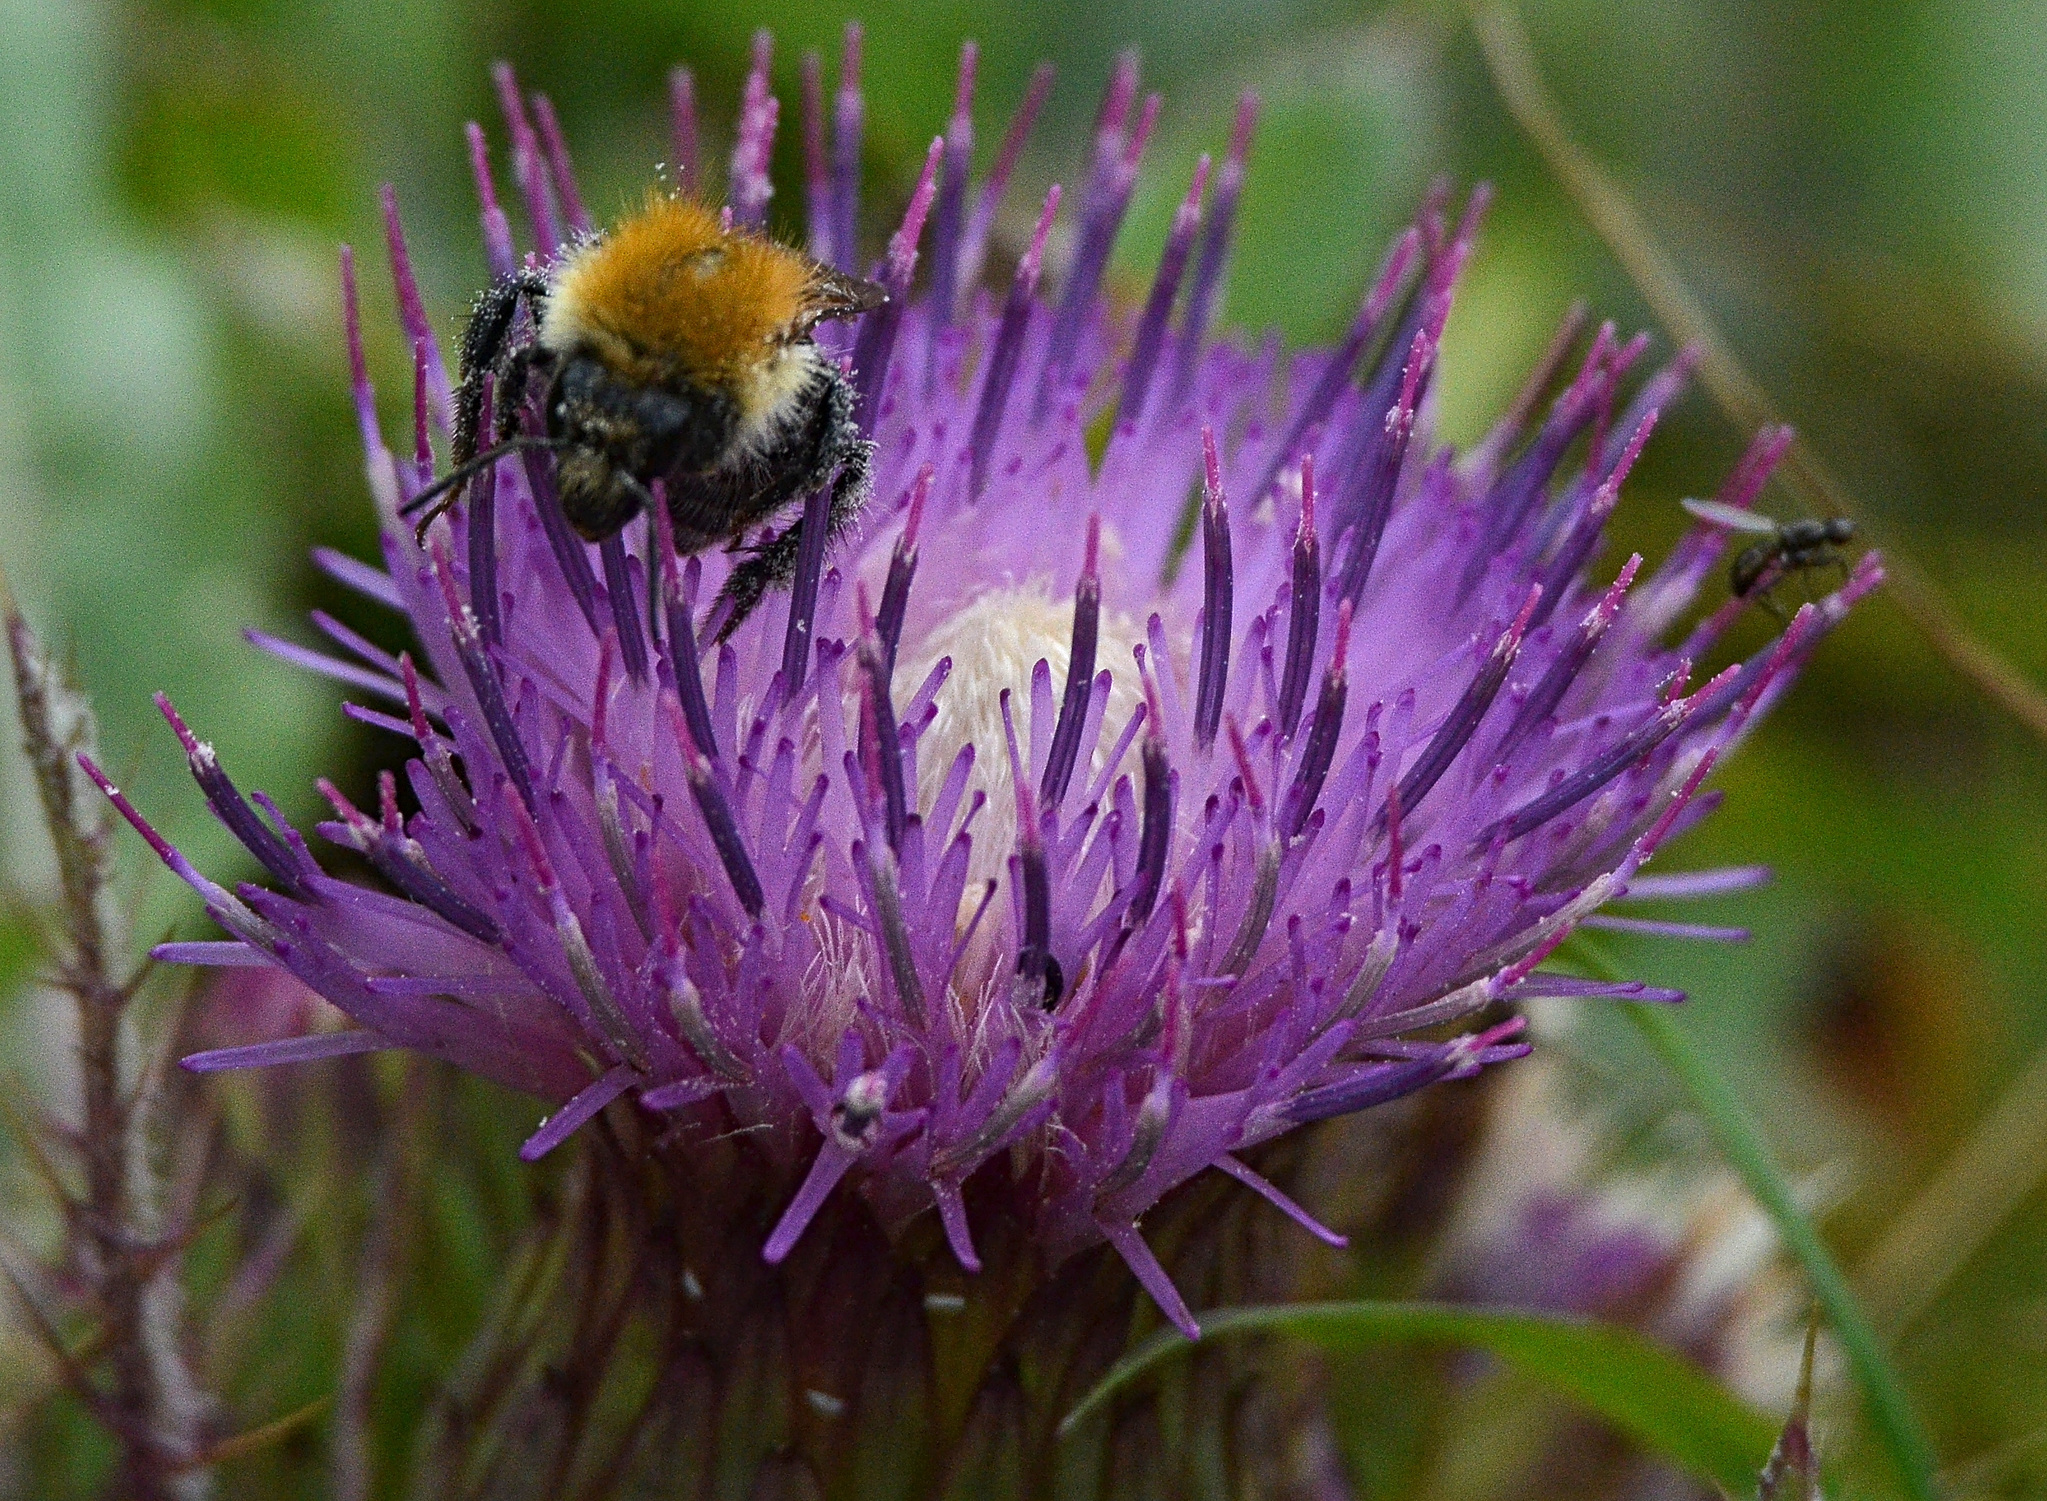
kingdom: Animalia
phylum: Arthropoda
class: Insecta
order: Hymenoptera
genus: Thoracobombus
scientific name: Thoracobombus
